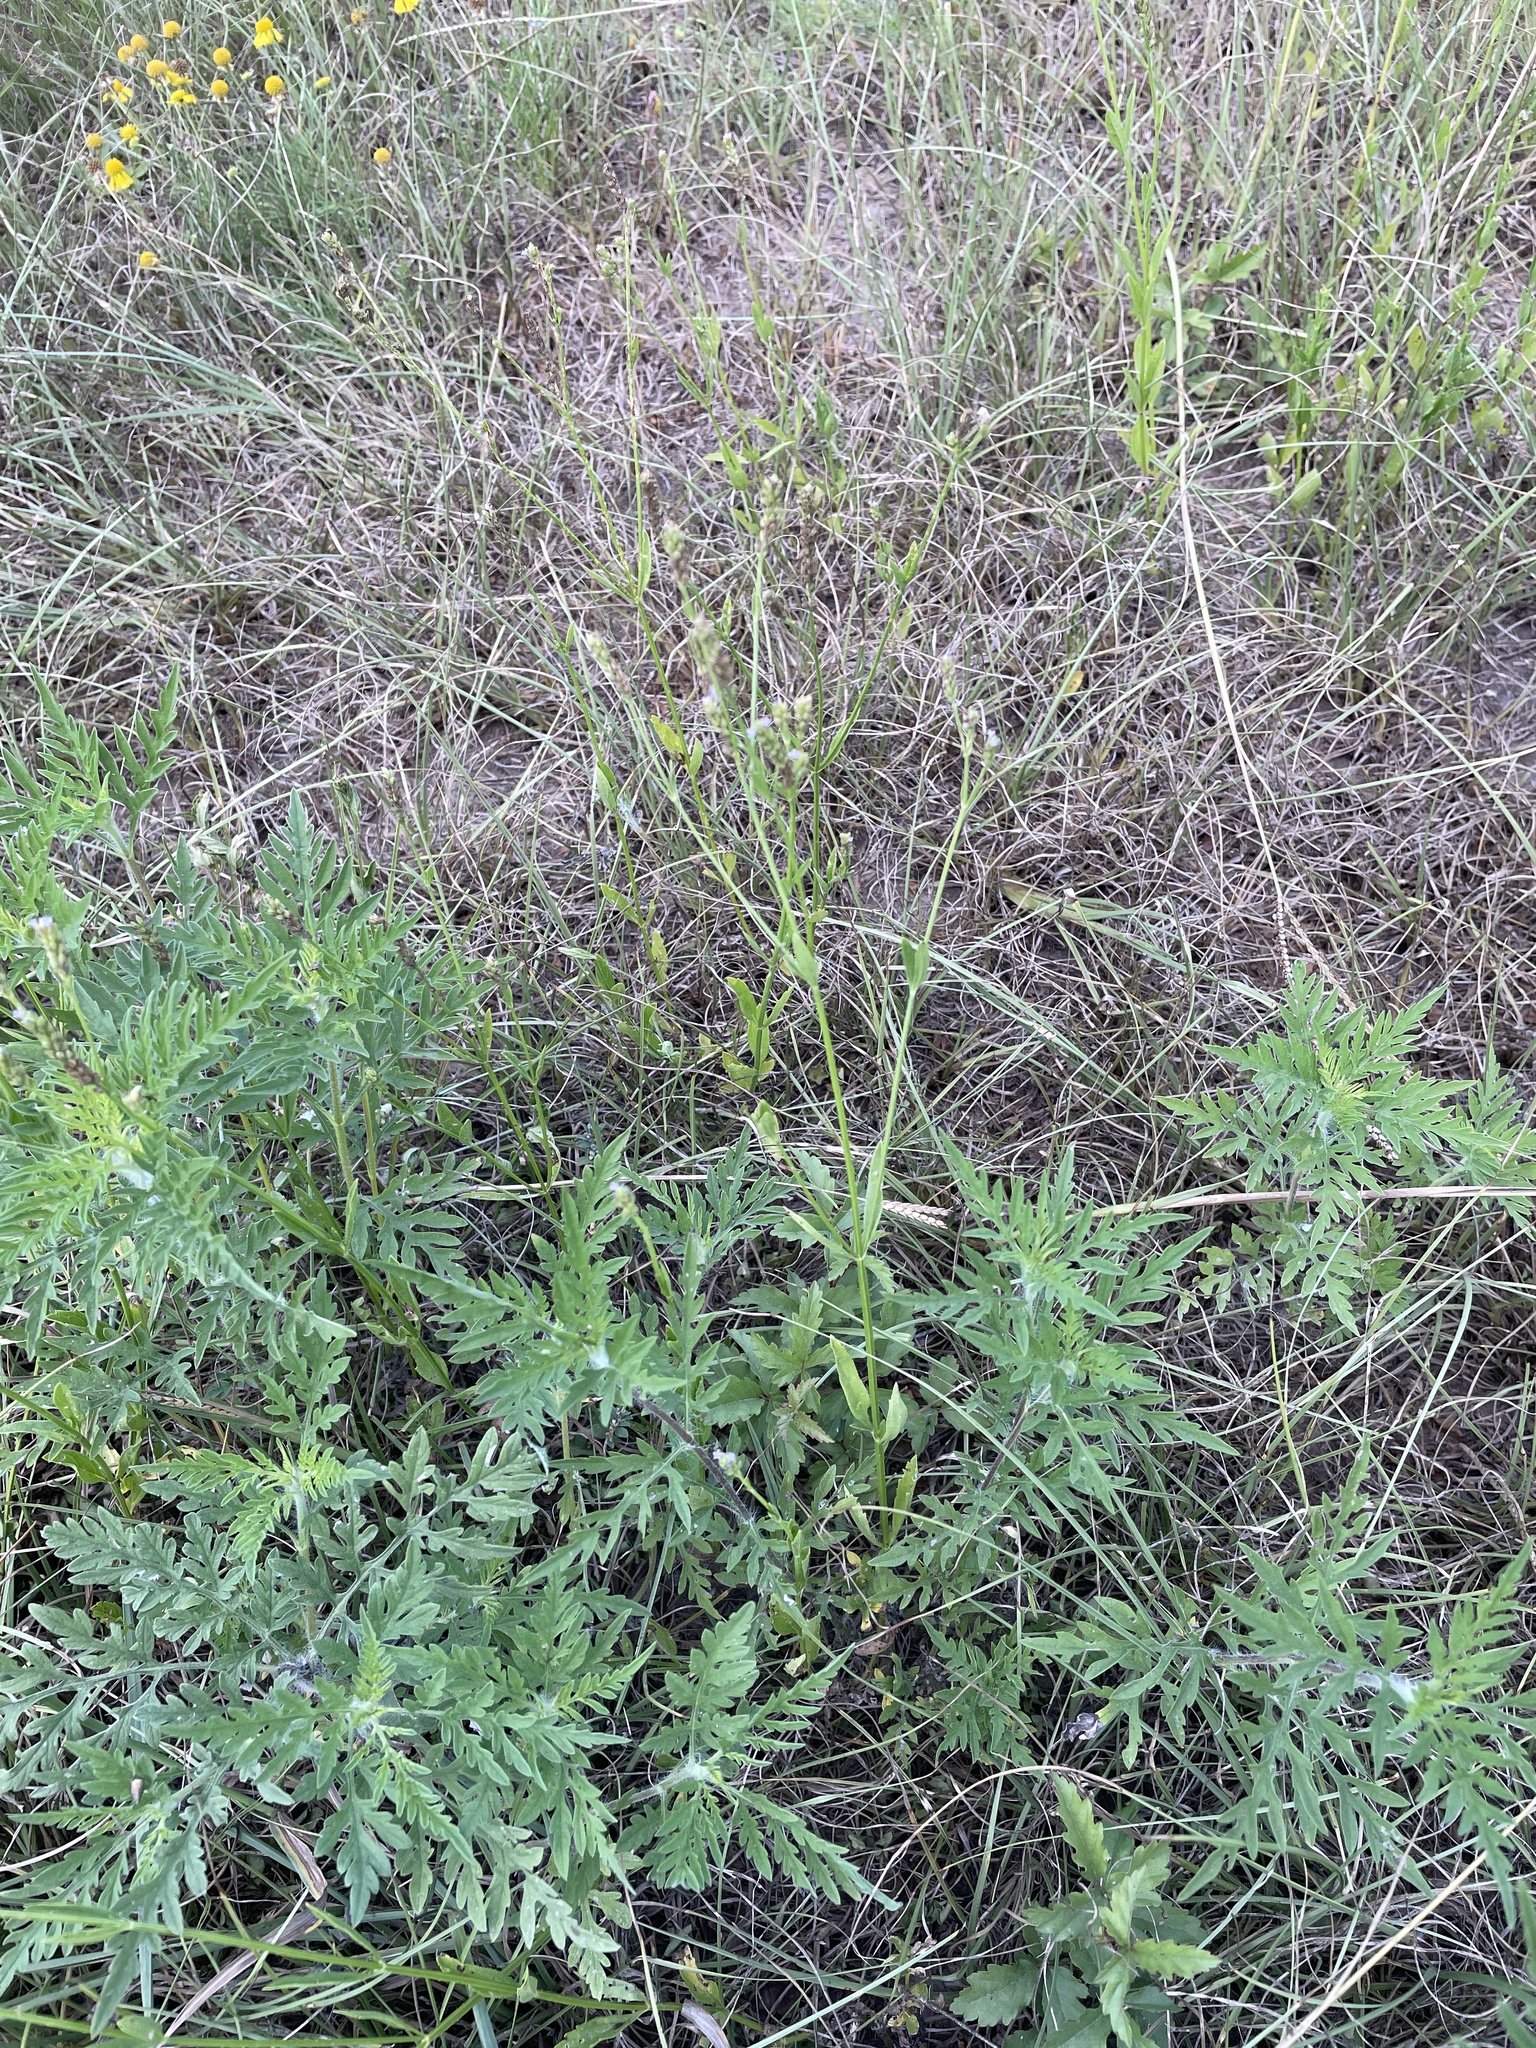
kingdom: Plantae
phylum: Tracheophyta
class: Magnoliopsida
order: Lamiales
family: Verbenaceae
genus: Verbena
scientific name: Verbena brasiliensis
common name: Brazilian vervain
